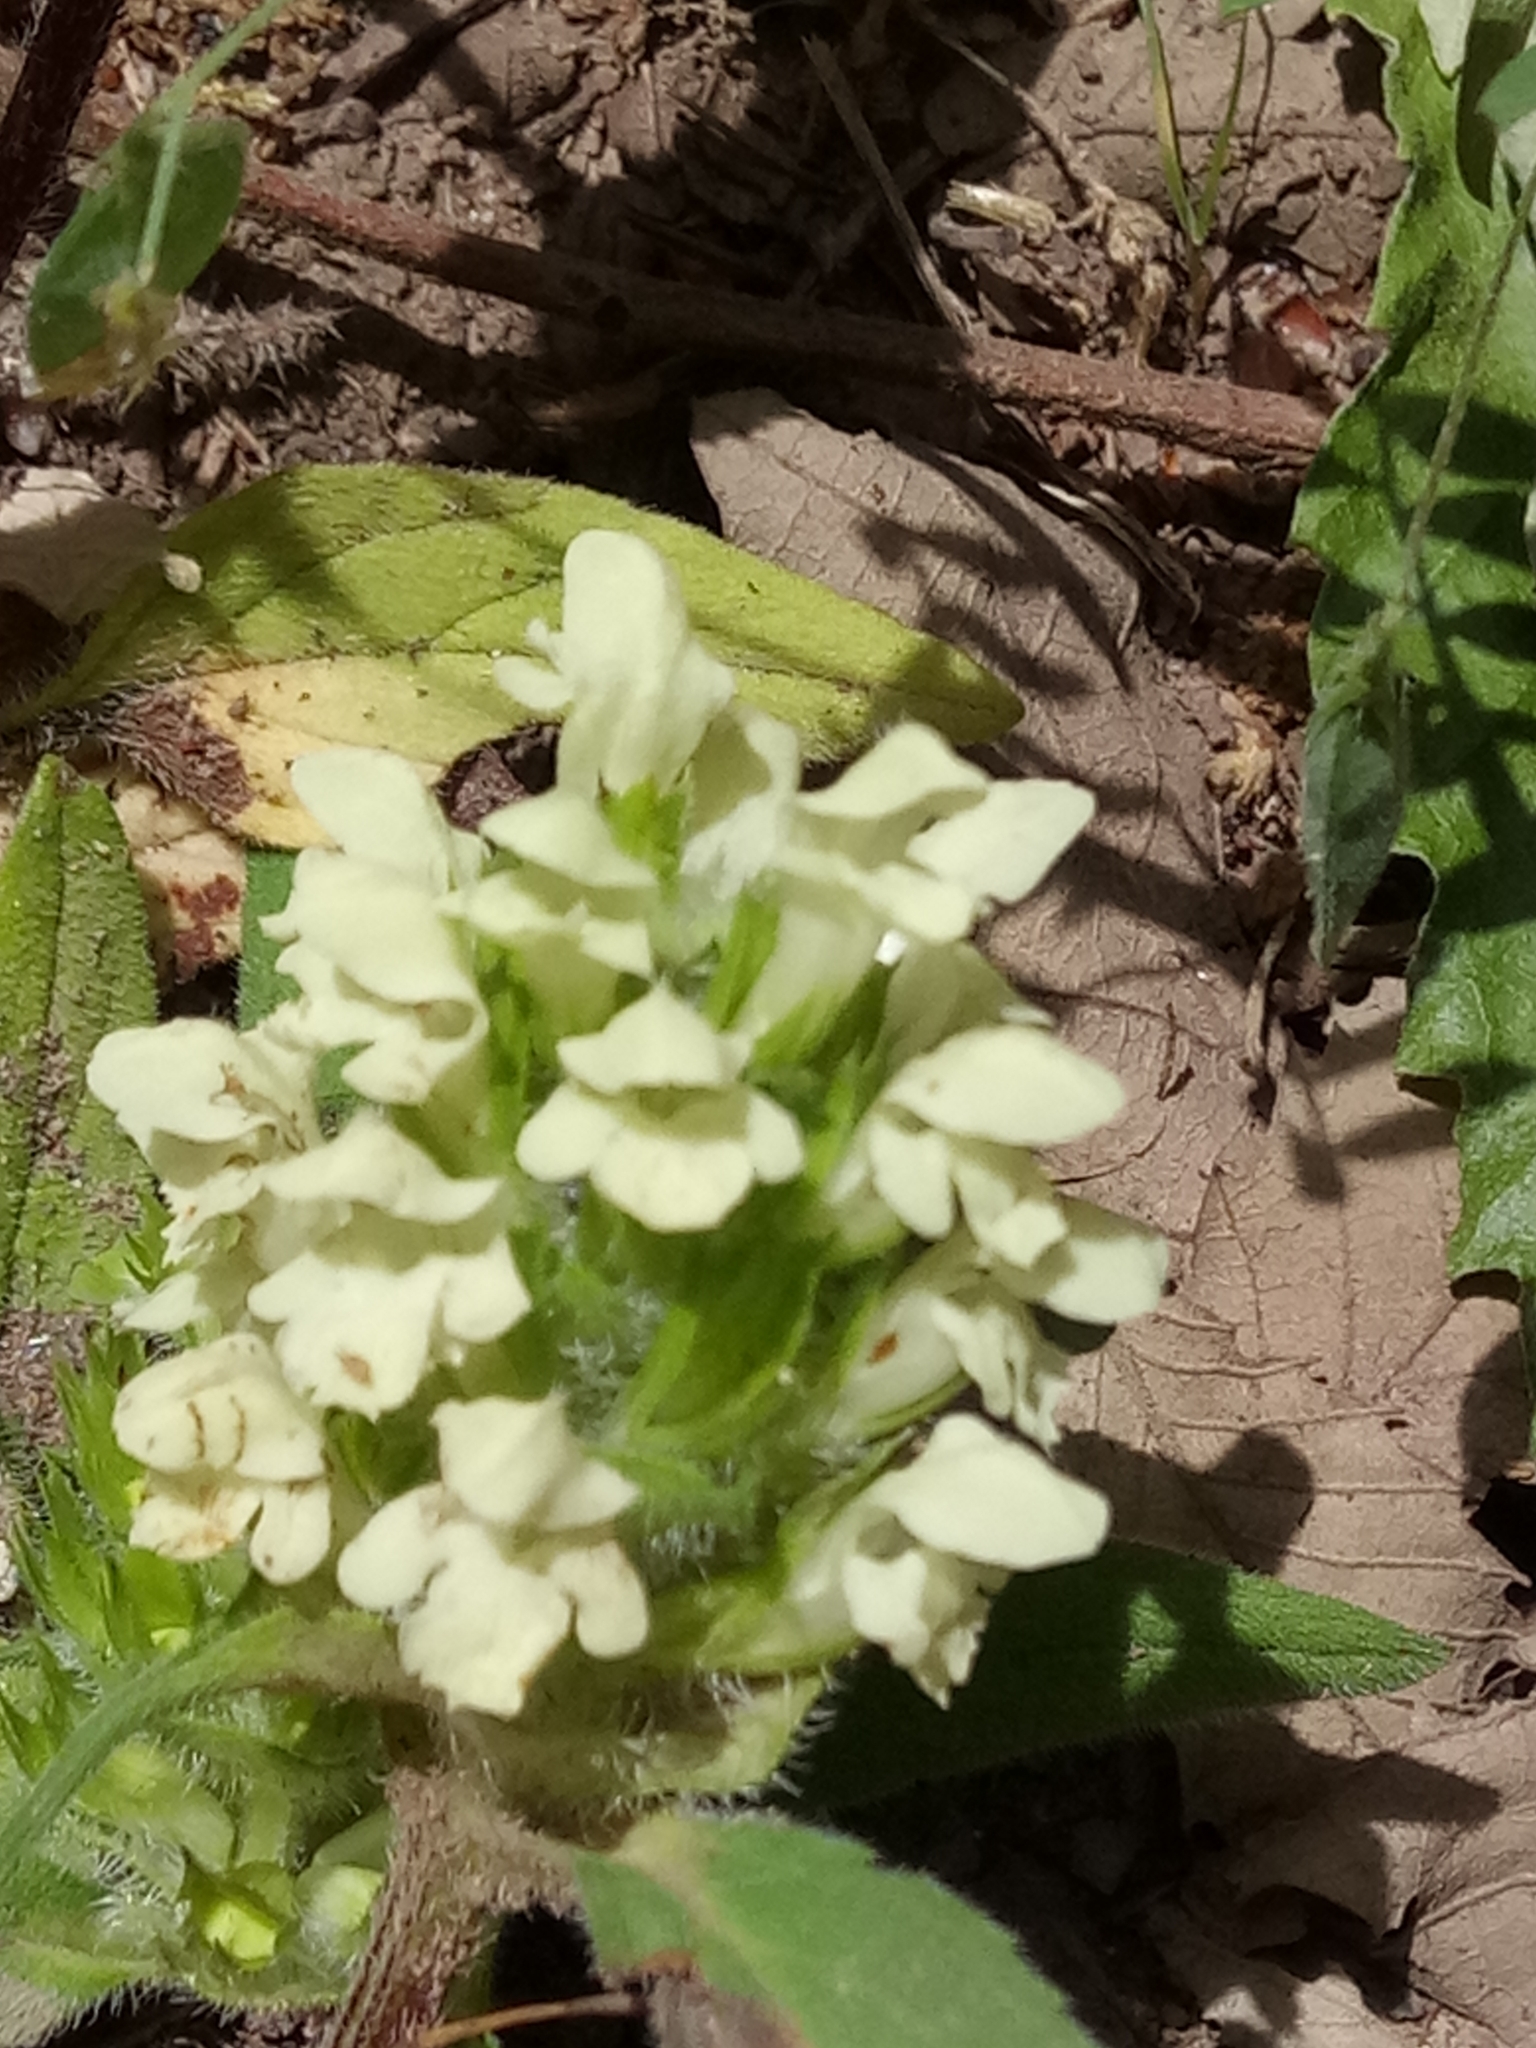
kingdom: Plantae
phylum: Tracheophyta
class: Magnoliopsida
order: Lamiales
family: Lamiaceae
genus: Prunella
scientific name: Prunella laciniata
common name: Cut-leaved selfheal
